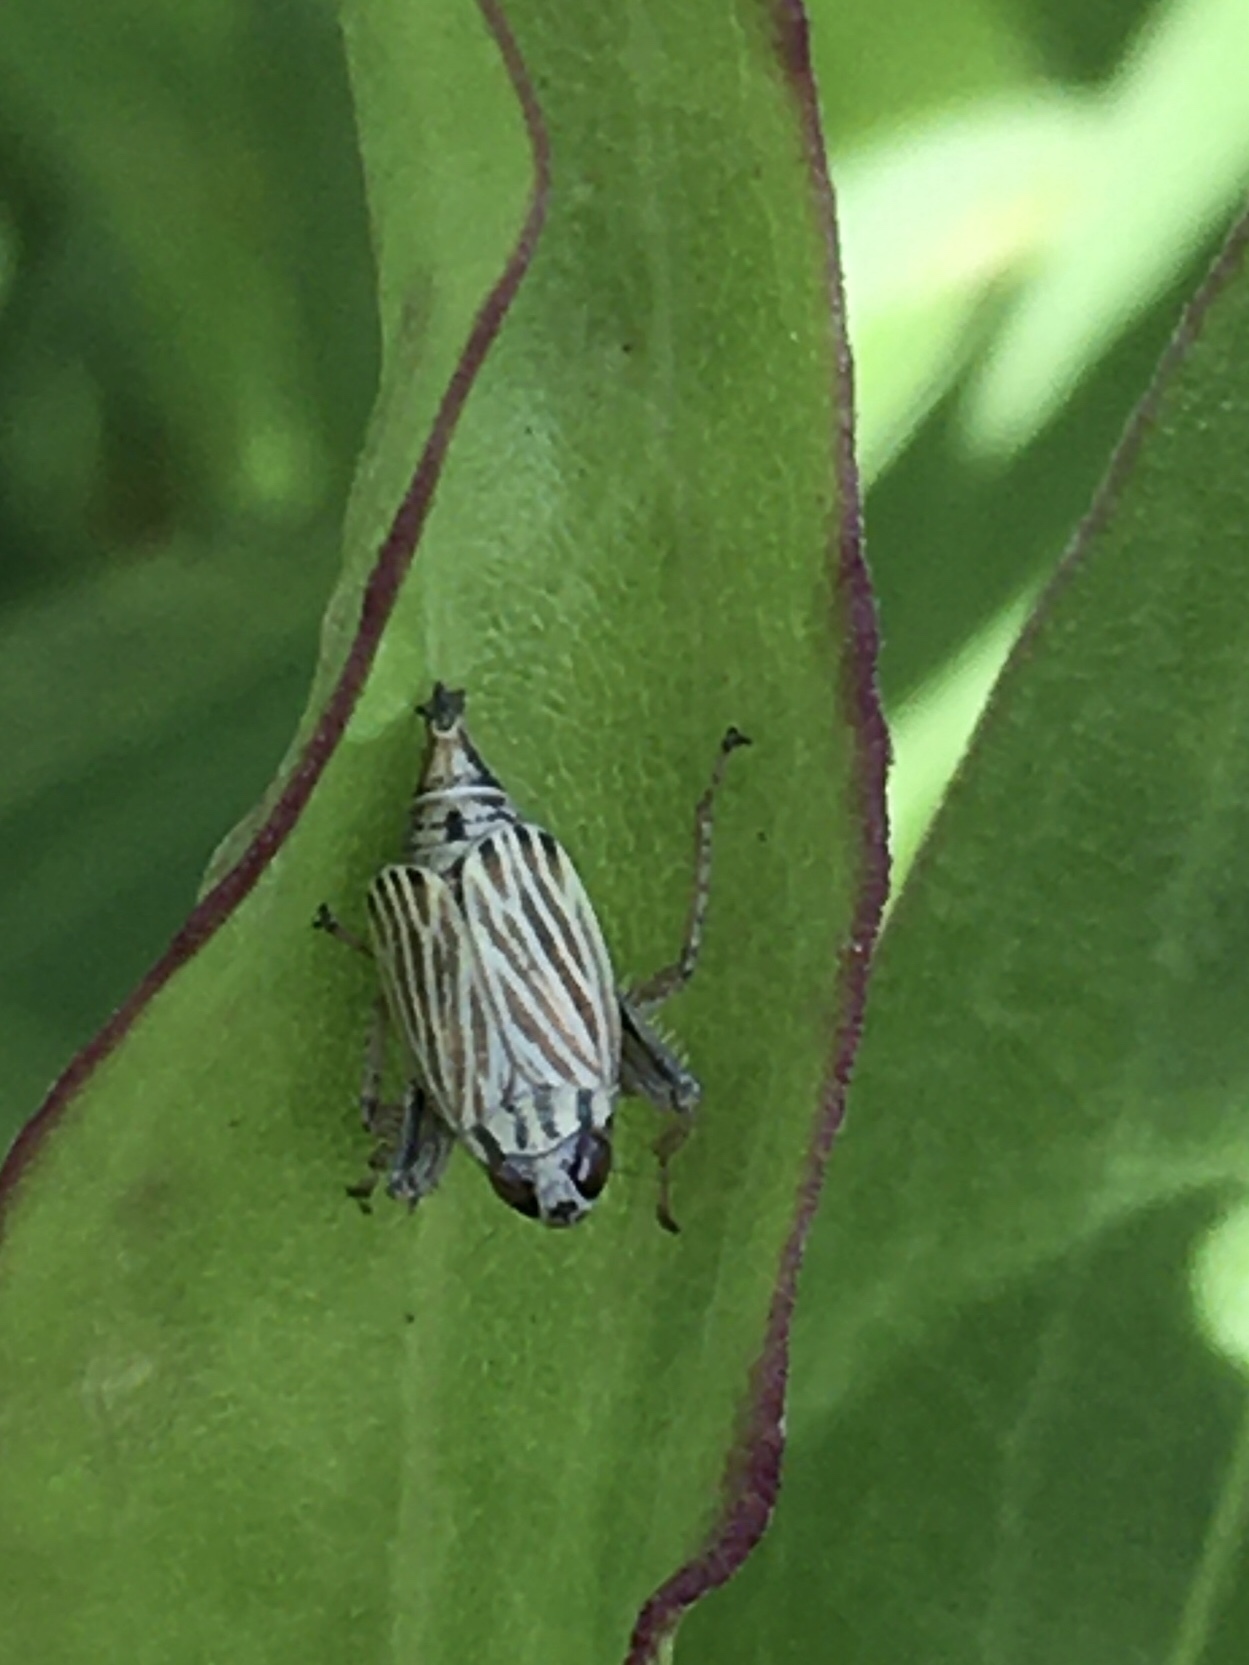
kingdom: Animalia
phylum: Arthropoda
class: Insecta
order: Hemiptera
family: Cicadellidae
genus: Tinobregmus
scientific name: Tinobregmus vittatus
